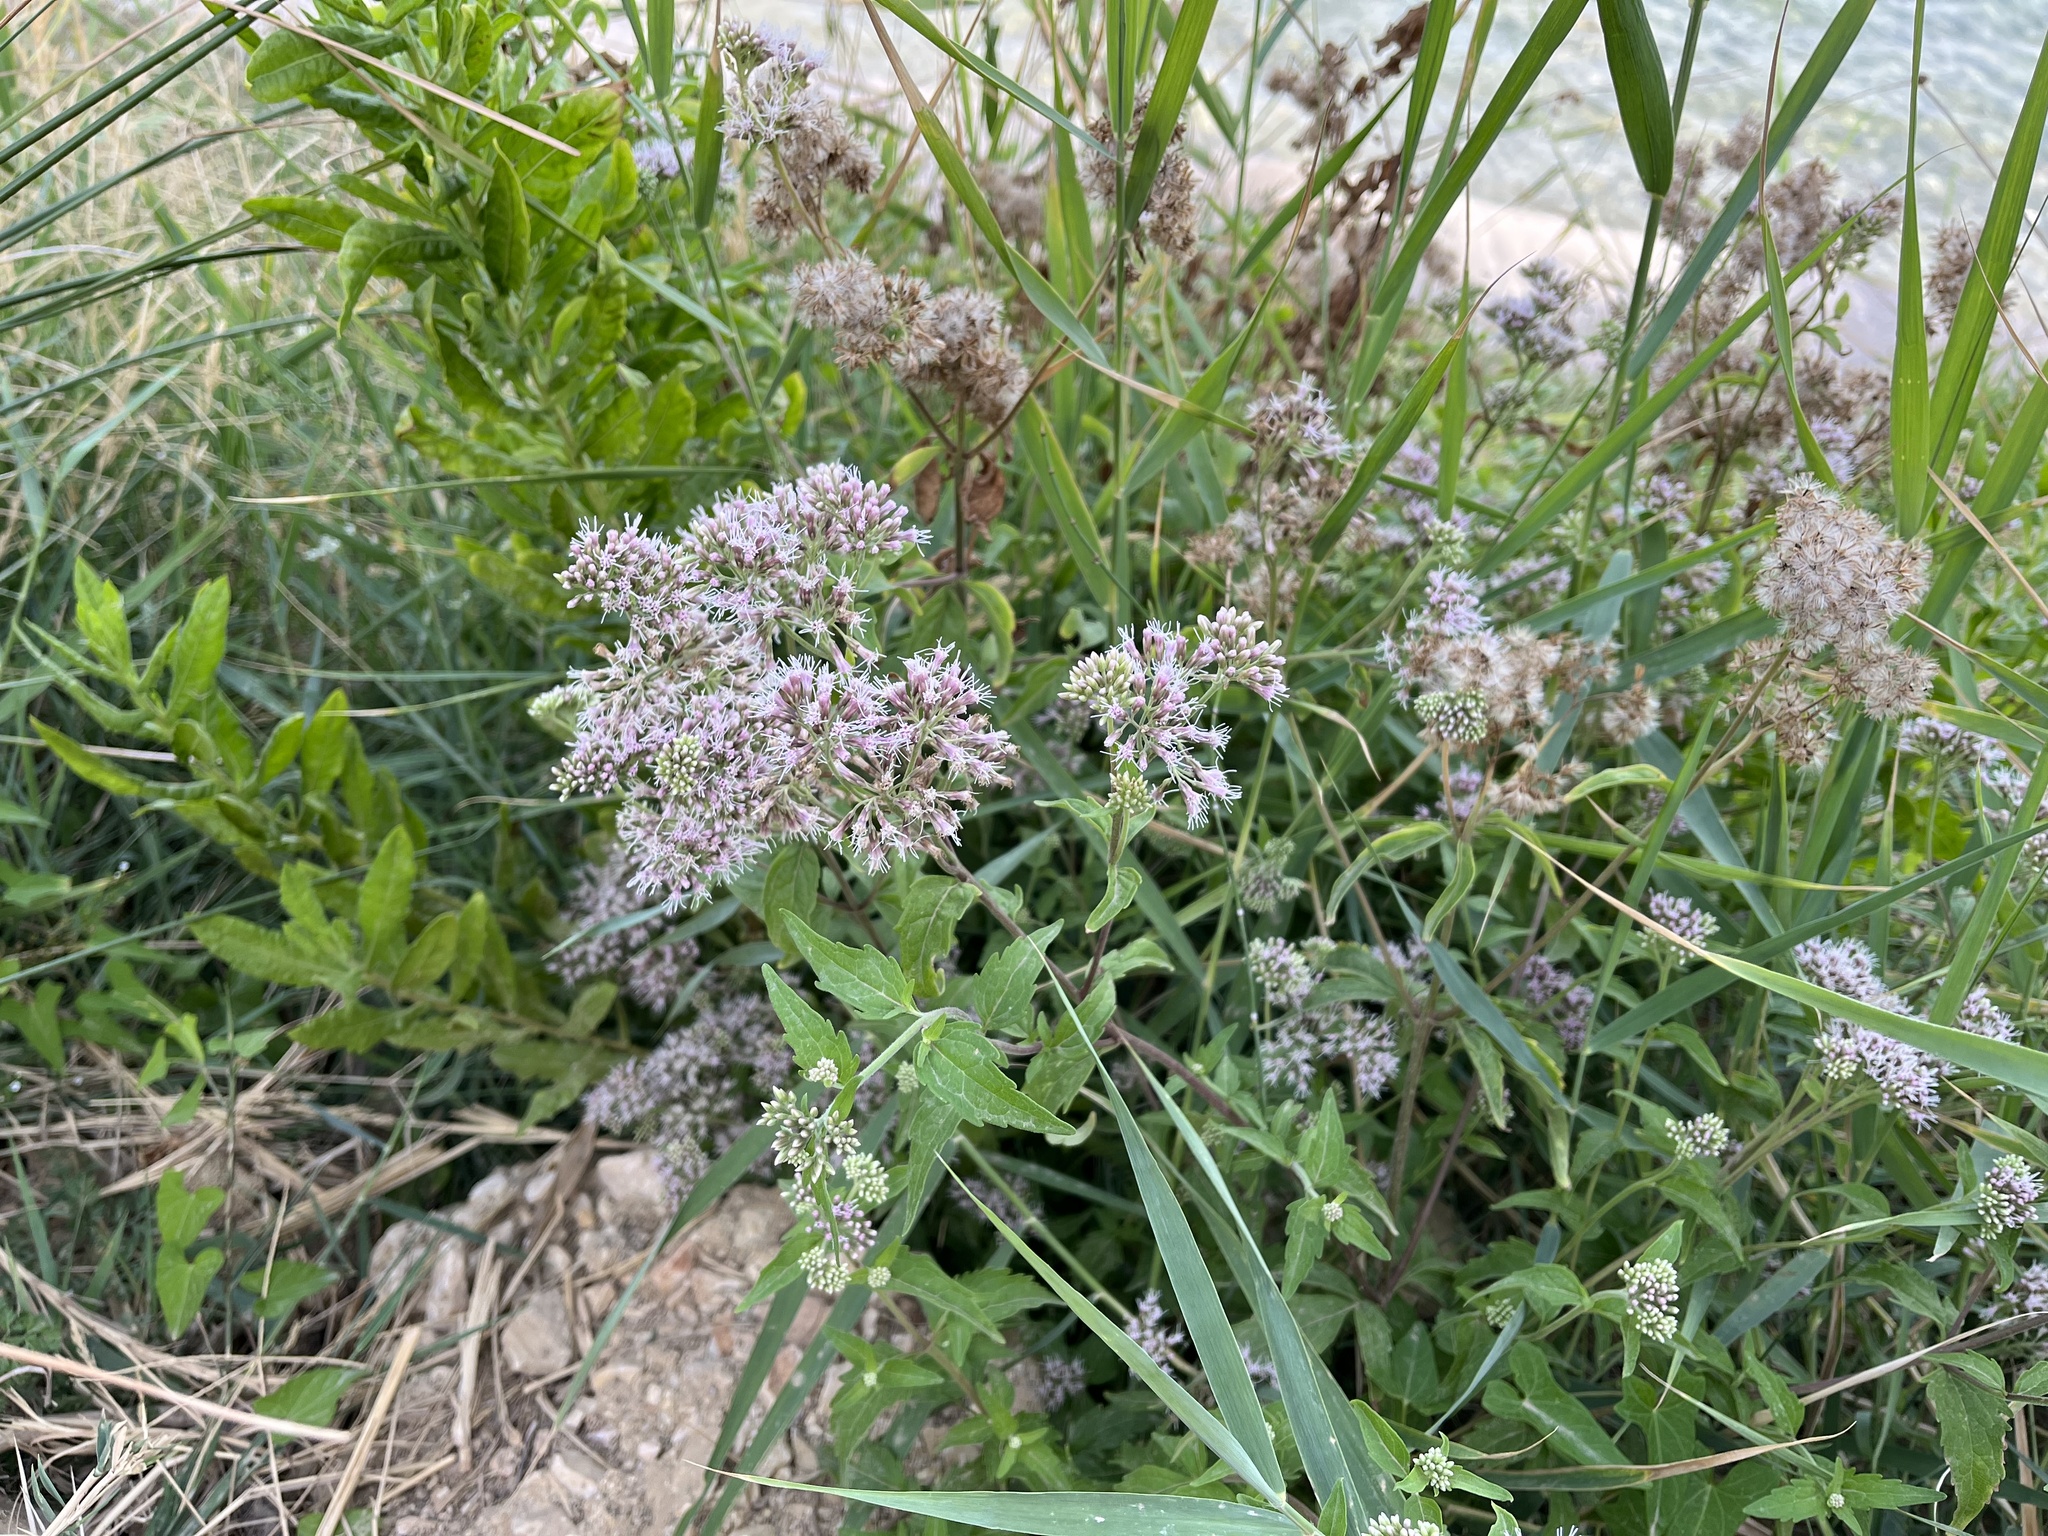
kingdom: Plantae
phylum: Tracheophyta
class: Magnoliopsida
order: Asterales
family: Asteraceae
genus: Eupatorium
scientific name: Eupatorium cannabinum
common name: Hemp-agrimony
